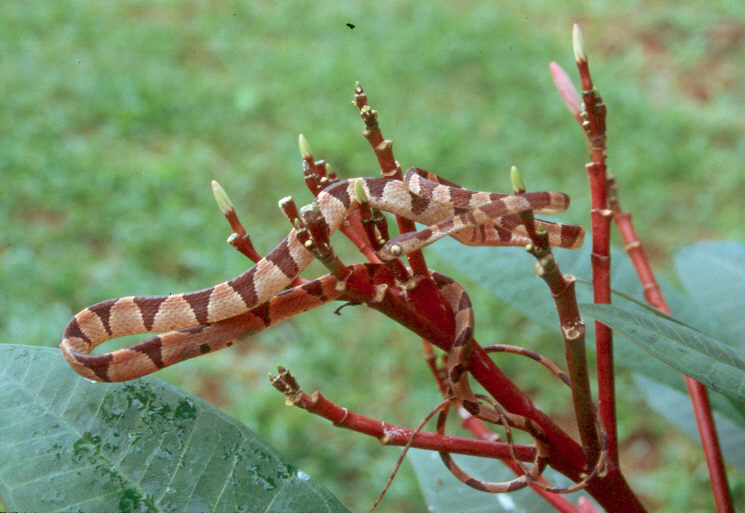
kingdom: Animalia
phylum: Chordata
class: Squamata
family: Colubridae
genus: Imantodes
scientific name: Imantodes cenchoa
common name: Blunthead tree snake
